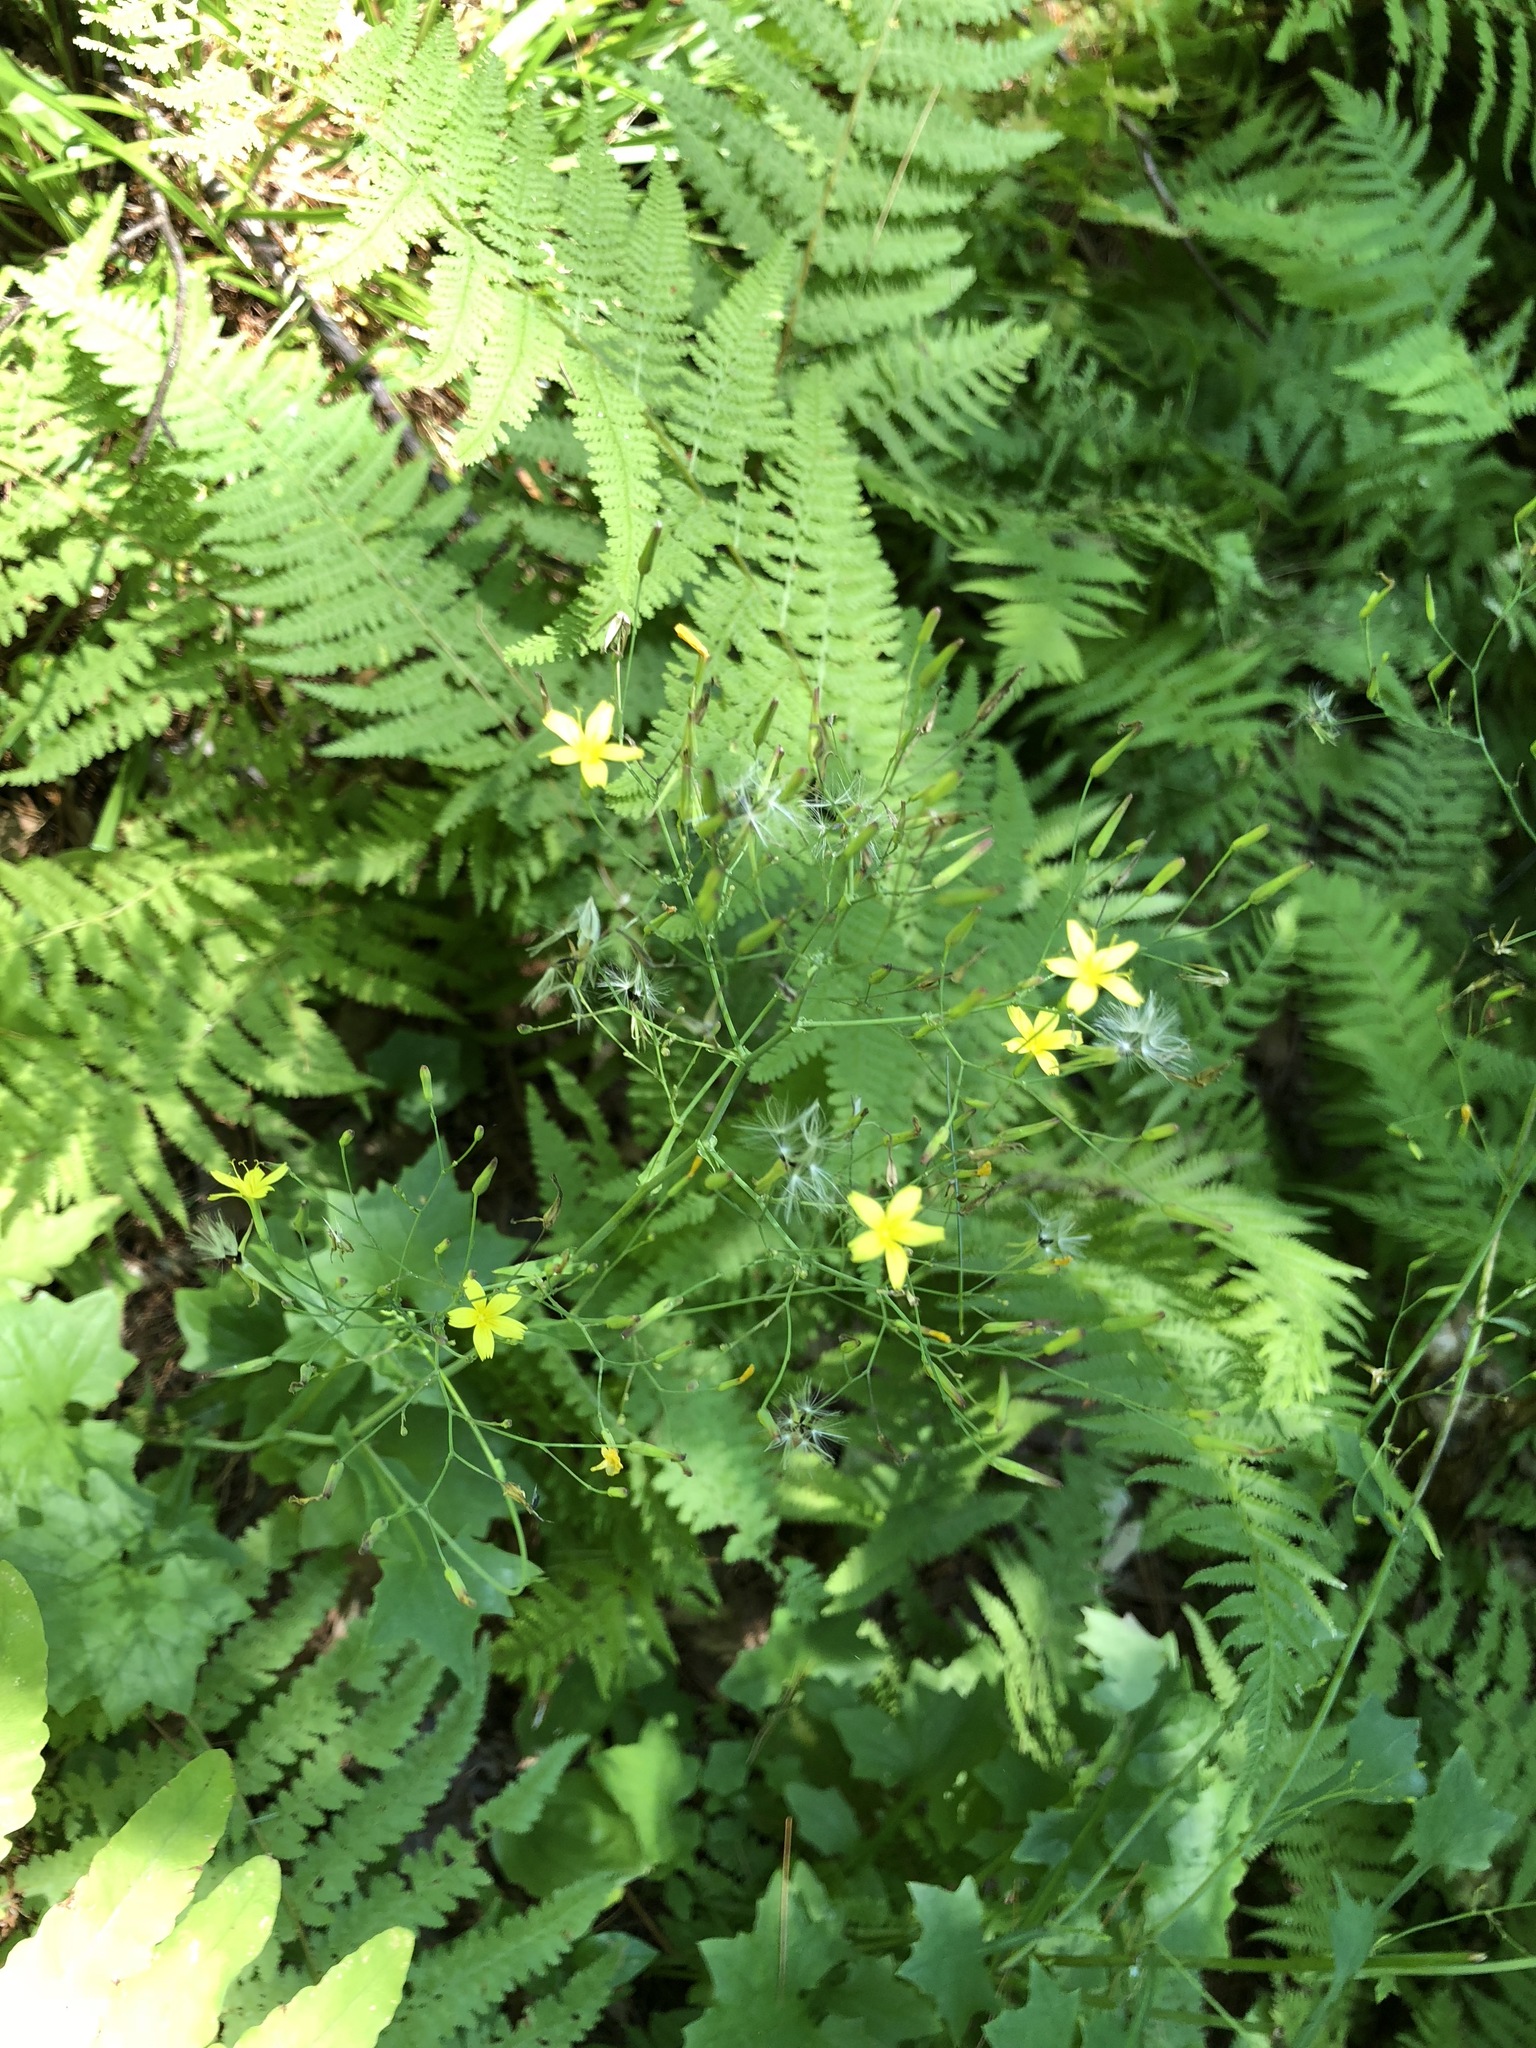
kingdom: Plantae
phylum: Tracheophyta
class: Magnoliopsida
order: Asterales
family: Asteraceae
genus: Mycelis
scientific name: Mycelis muralis
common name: Wall lettuce
